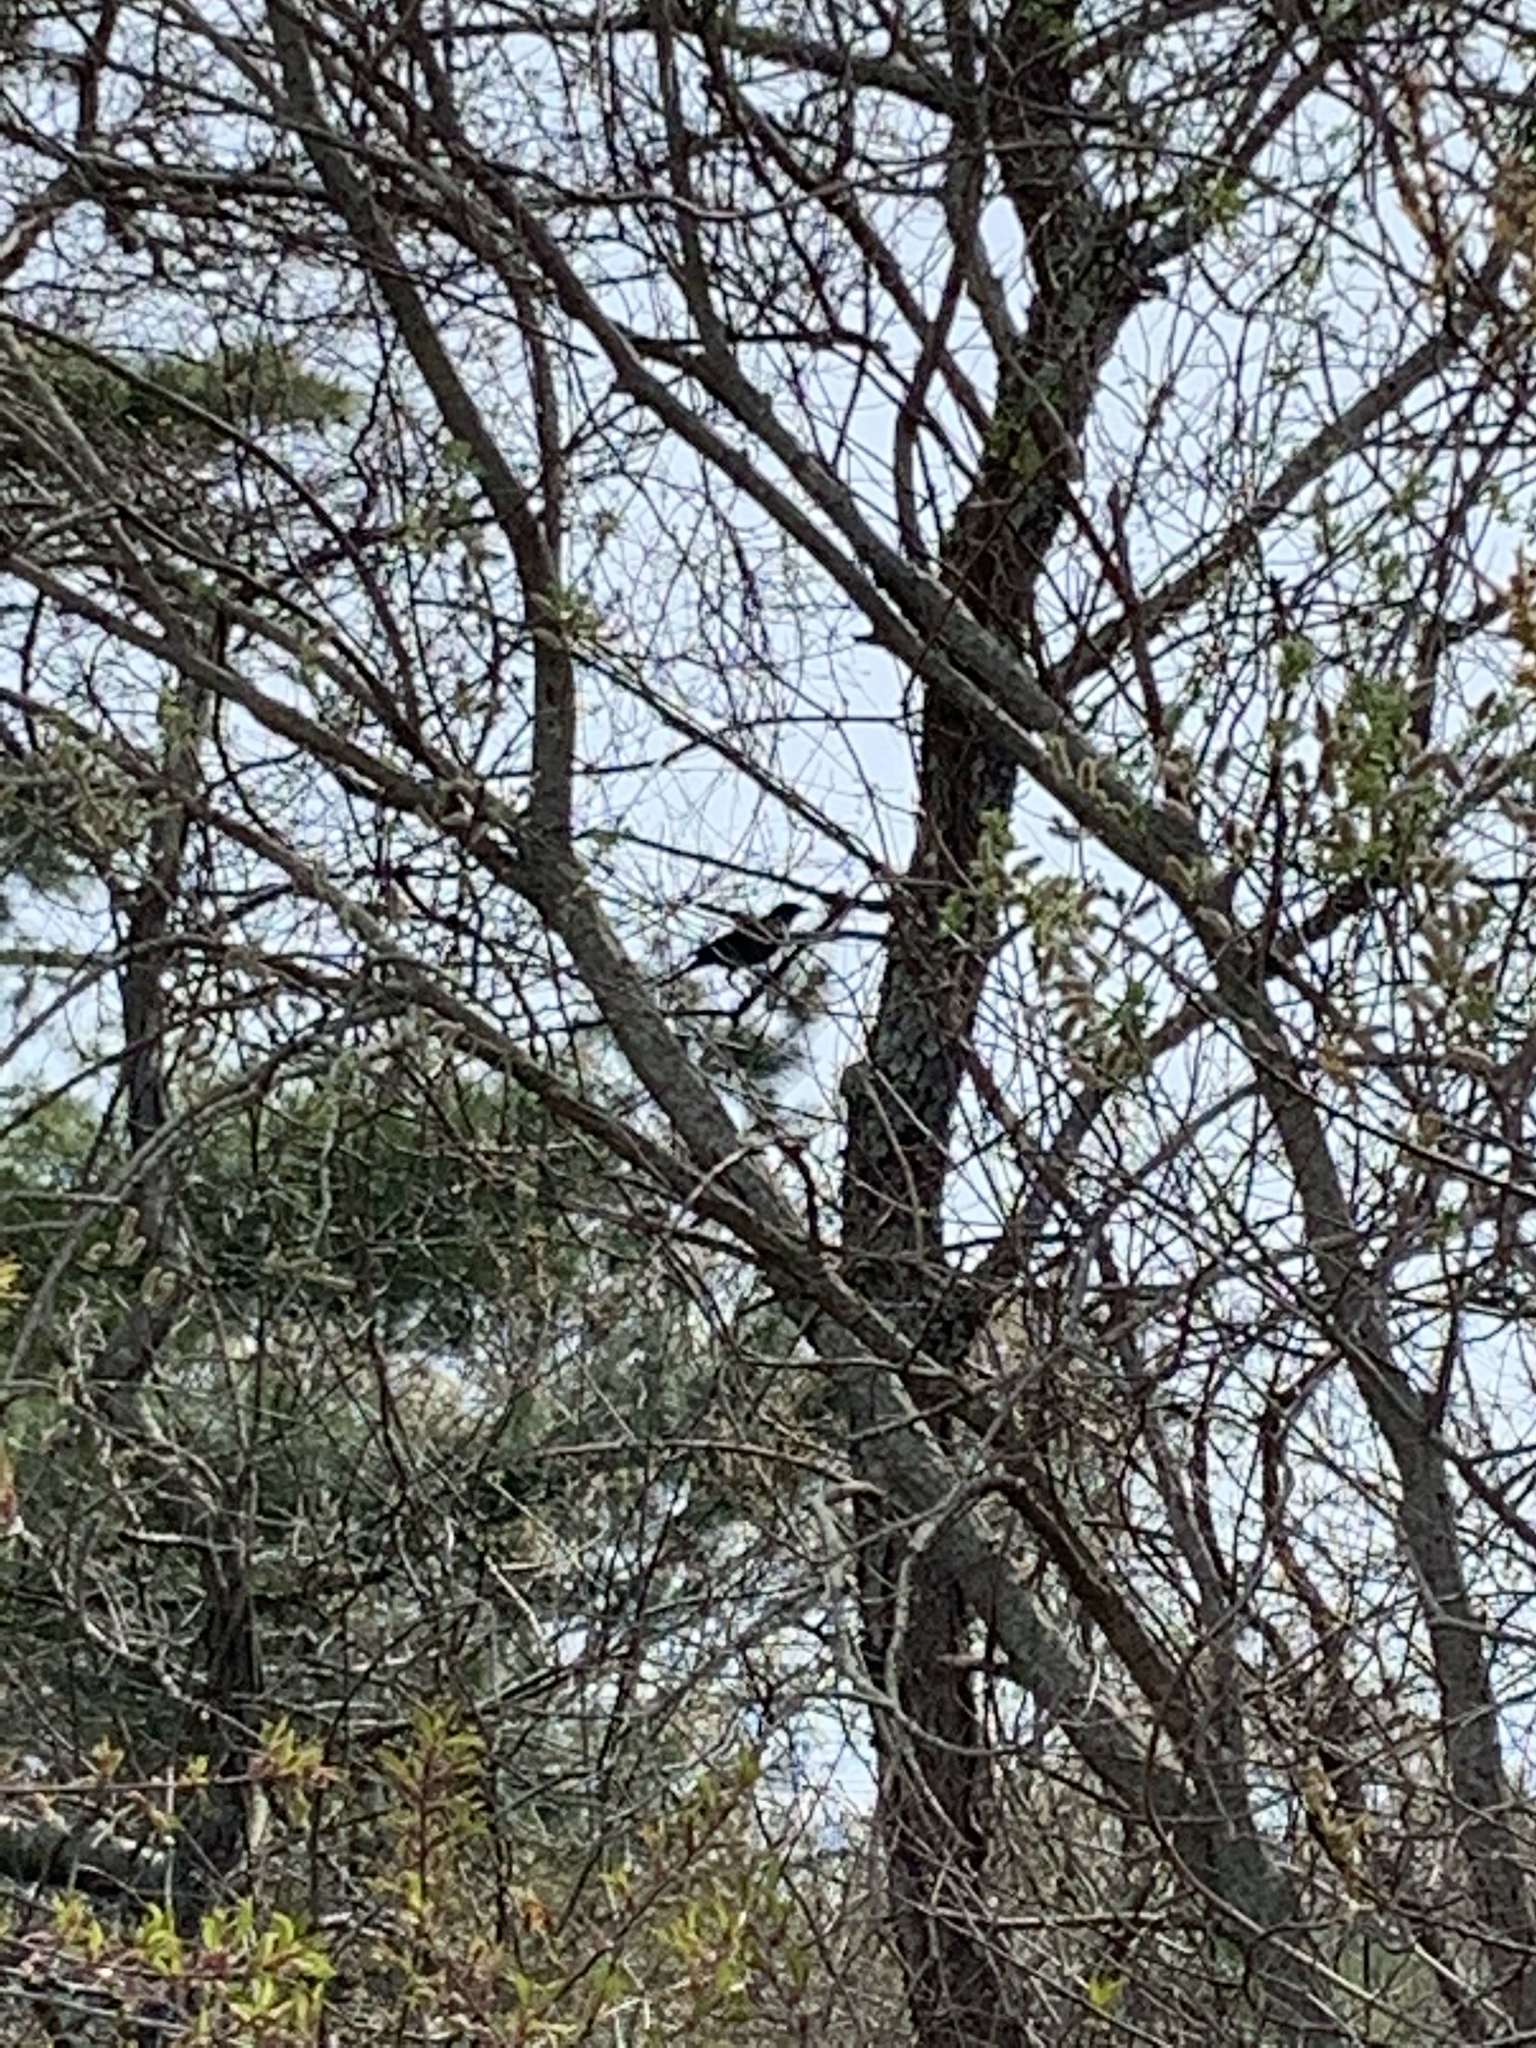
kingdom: Animalia
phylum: Chordata
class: Aves
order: Passeriformes
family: Icteridae
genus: Quiscalus
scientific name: Quiscalus quiscula
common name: Common grackle
